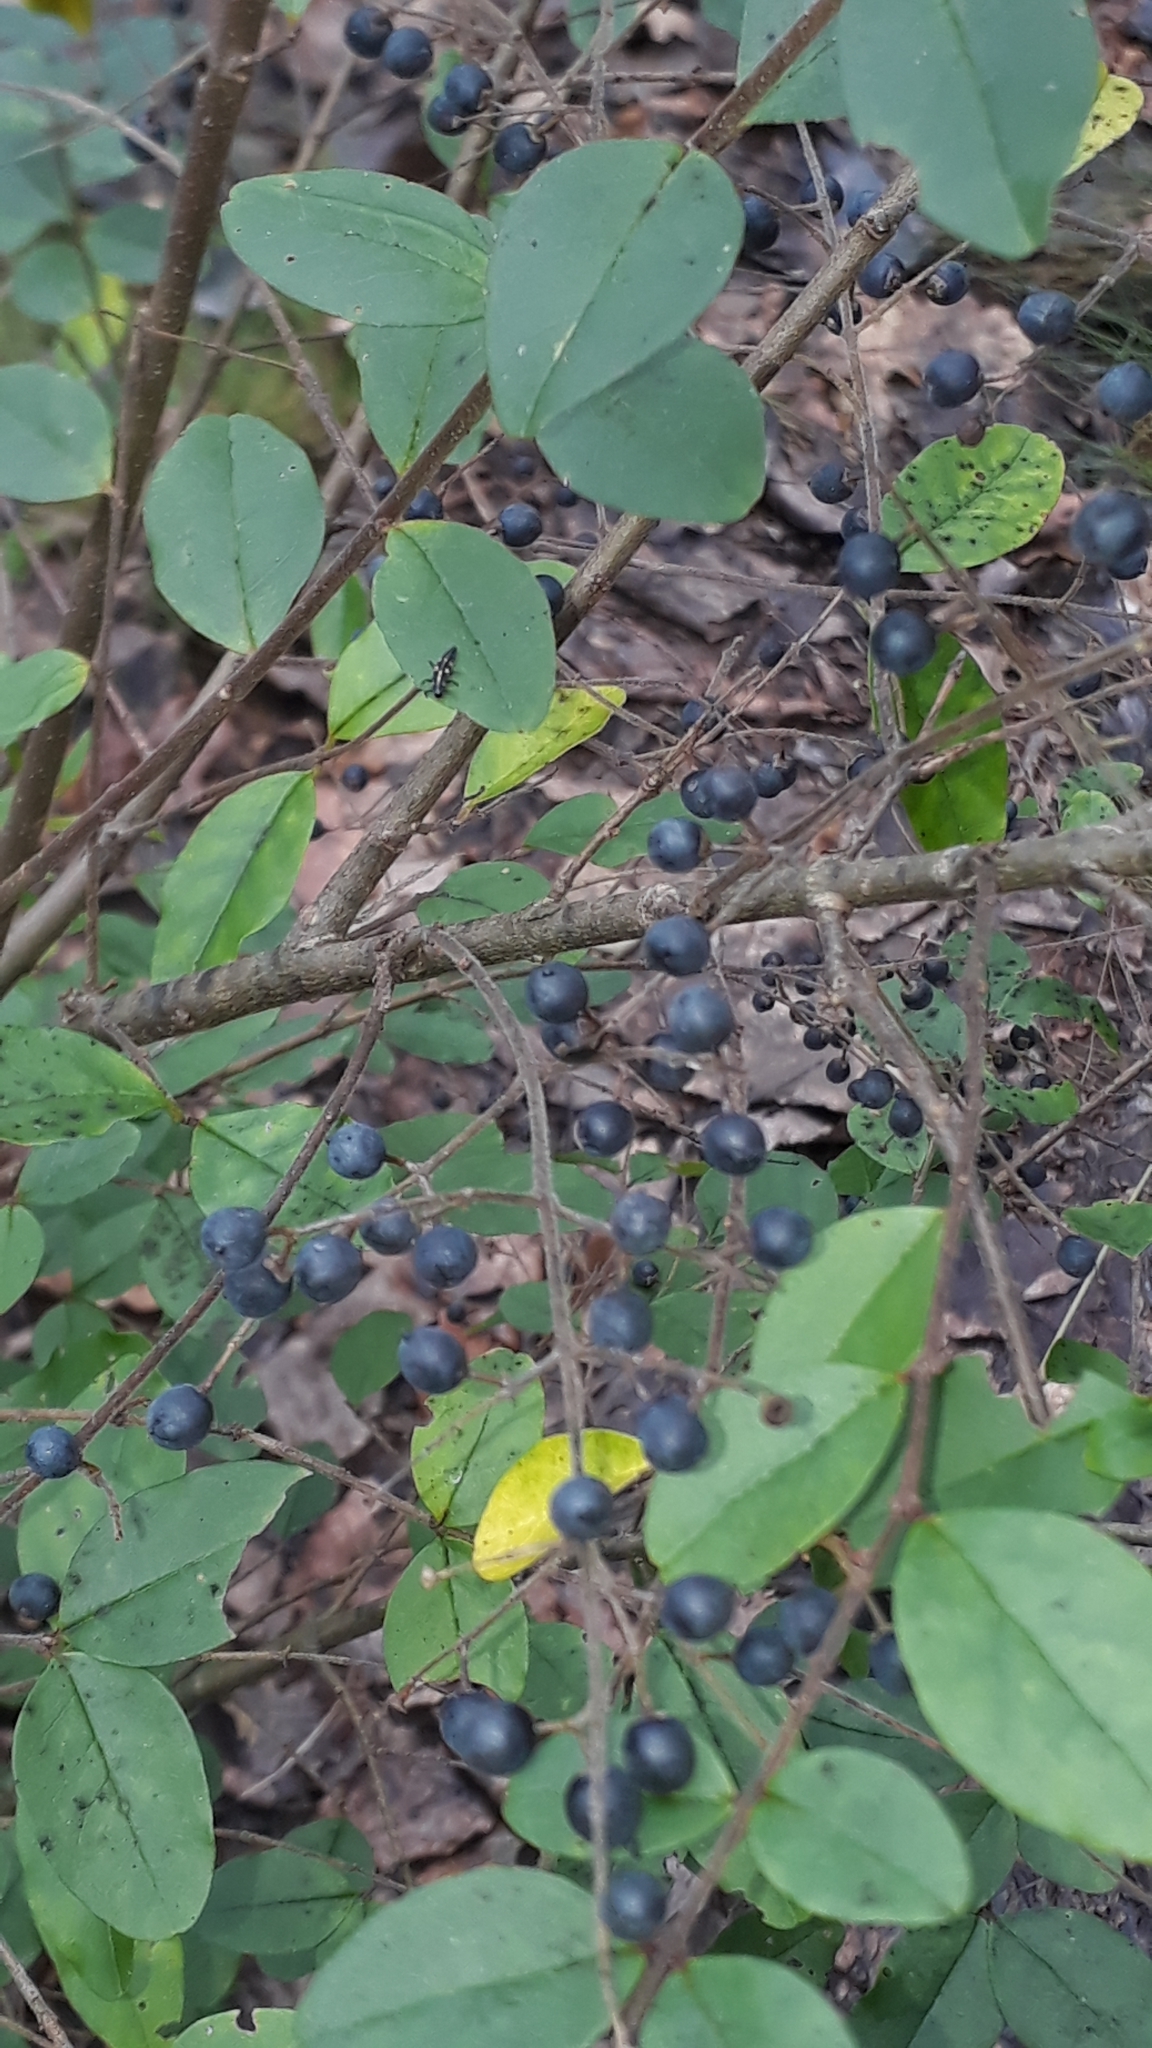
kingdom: Plantae
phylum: Tracheophyta
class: Magnoliopsida
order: Lamiales
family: Oleaceae
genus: Ligustrum
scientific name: Ligustrum sinense
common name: Chinese privet
